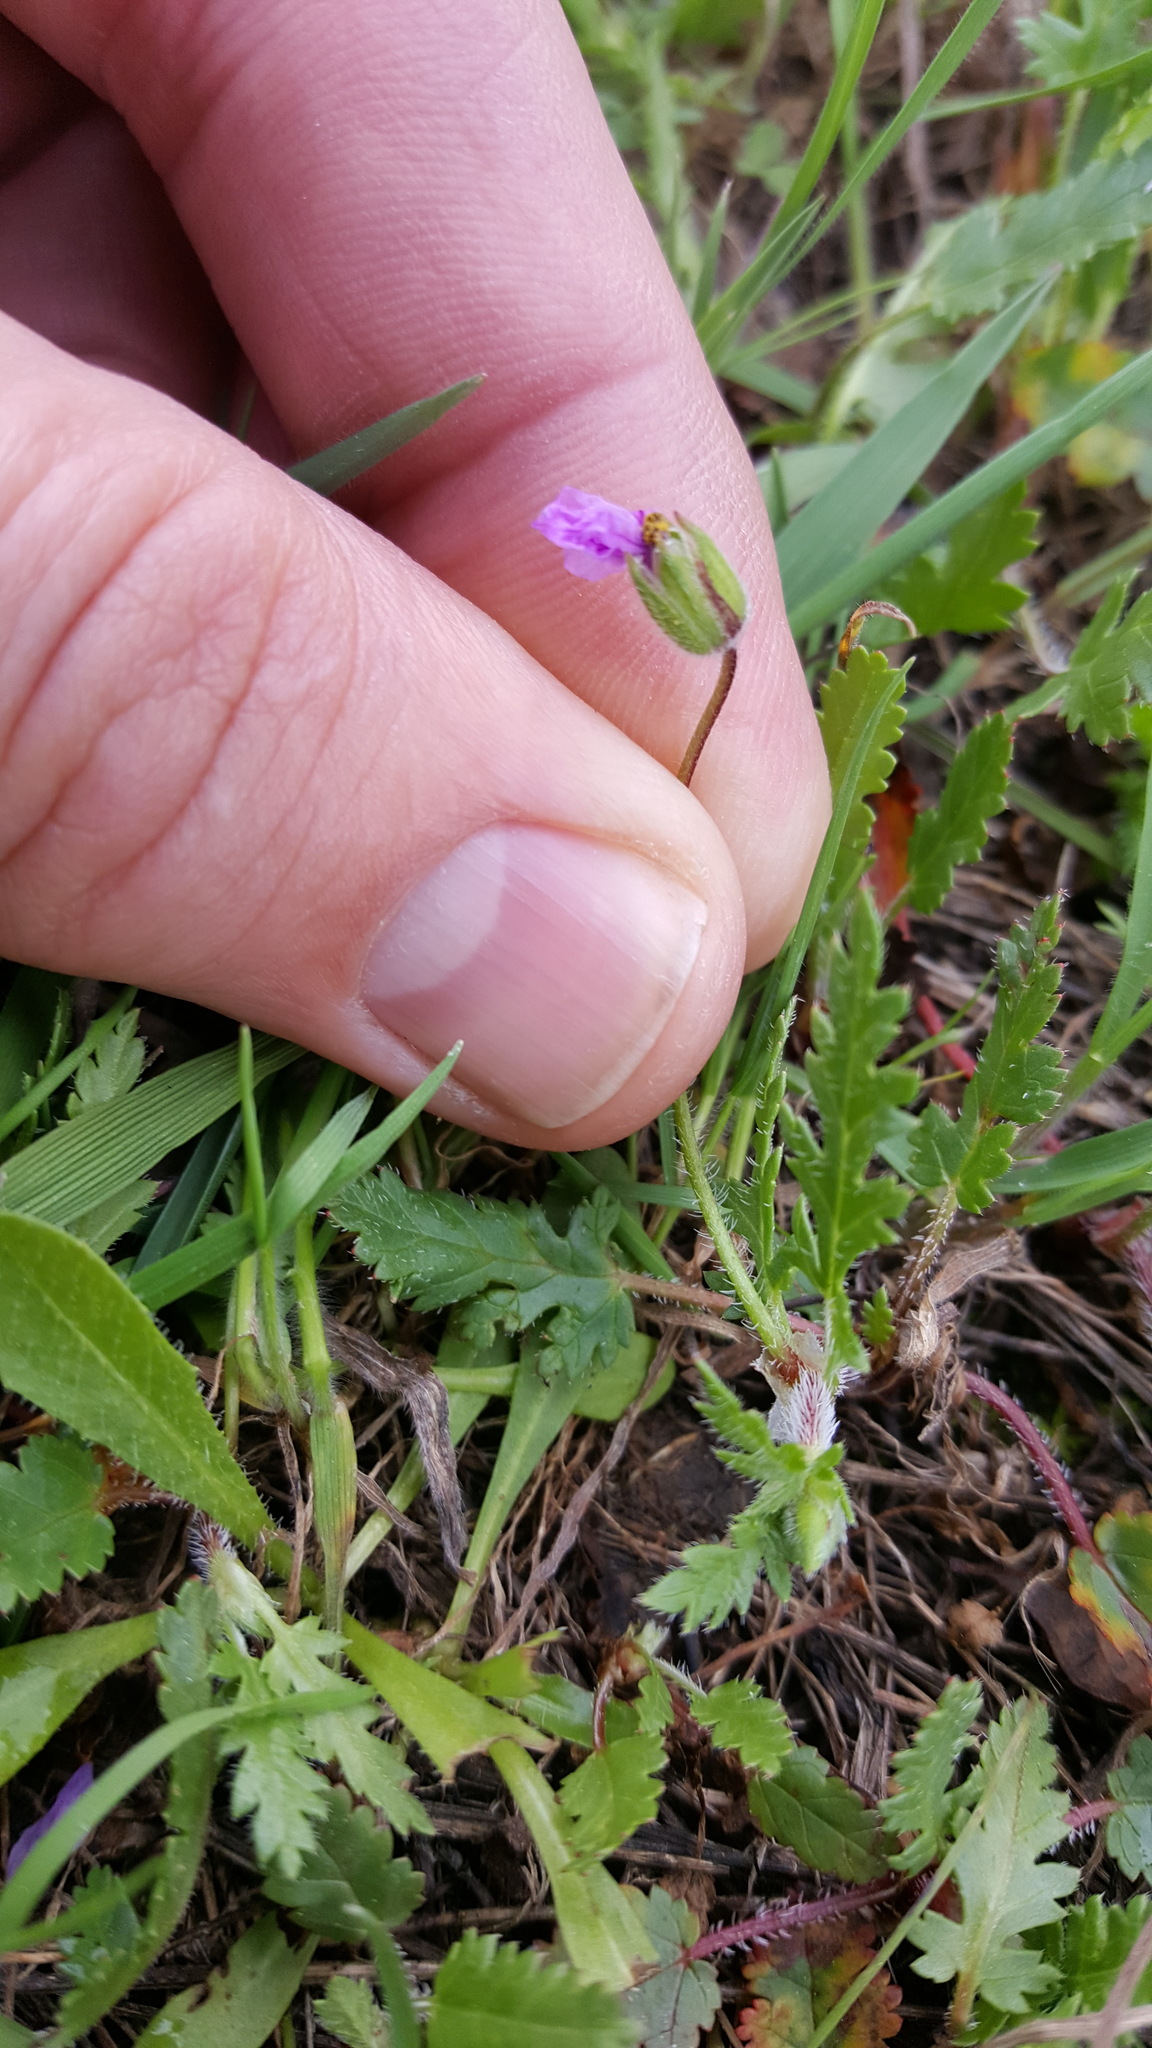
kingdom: Plantae
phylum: Tracheophyta
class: Magnoliopsida
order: Geraniales
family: Geraniaceae
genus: Erodium
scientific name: Erodium cicutarium
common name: Common stork's-bill
